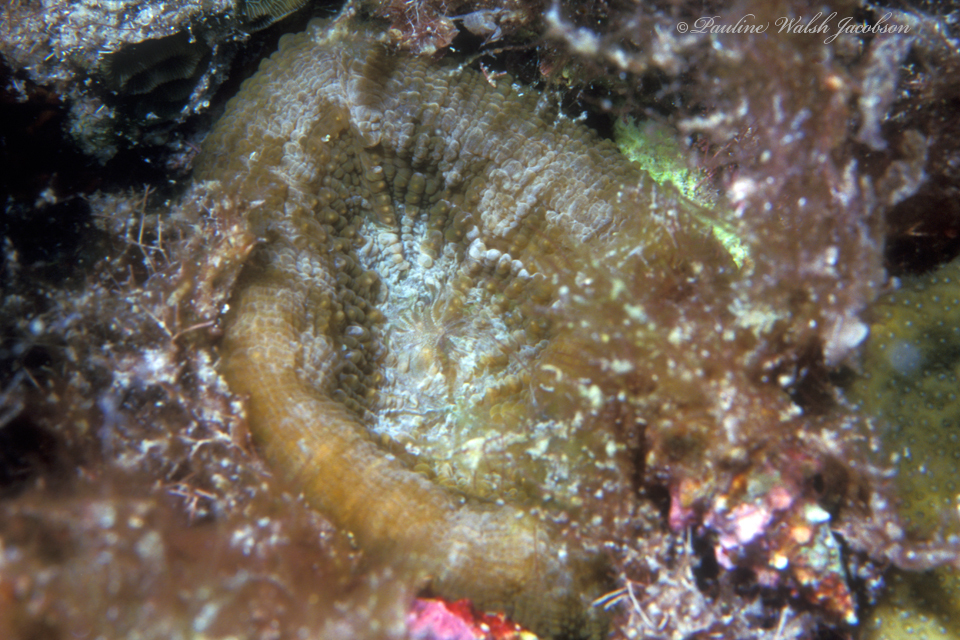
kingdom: Animalia
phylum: Cnidaria
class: Anthozoa
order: Scleractinia
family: Faviidae
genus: Scolymia
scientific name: Scolymia cubensis
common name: Artichoke coral
